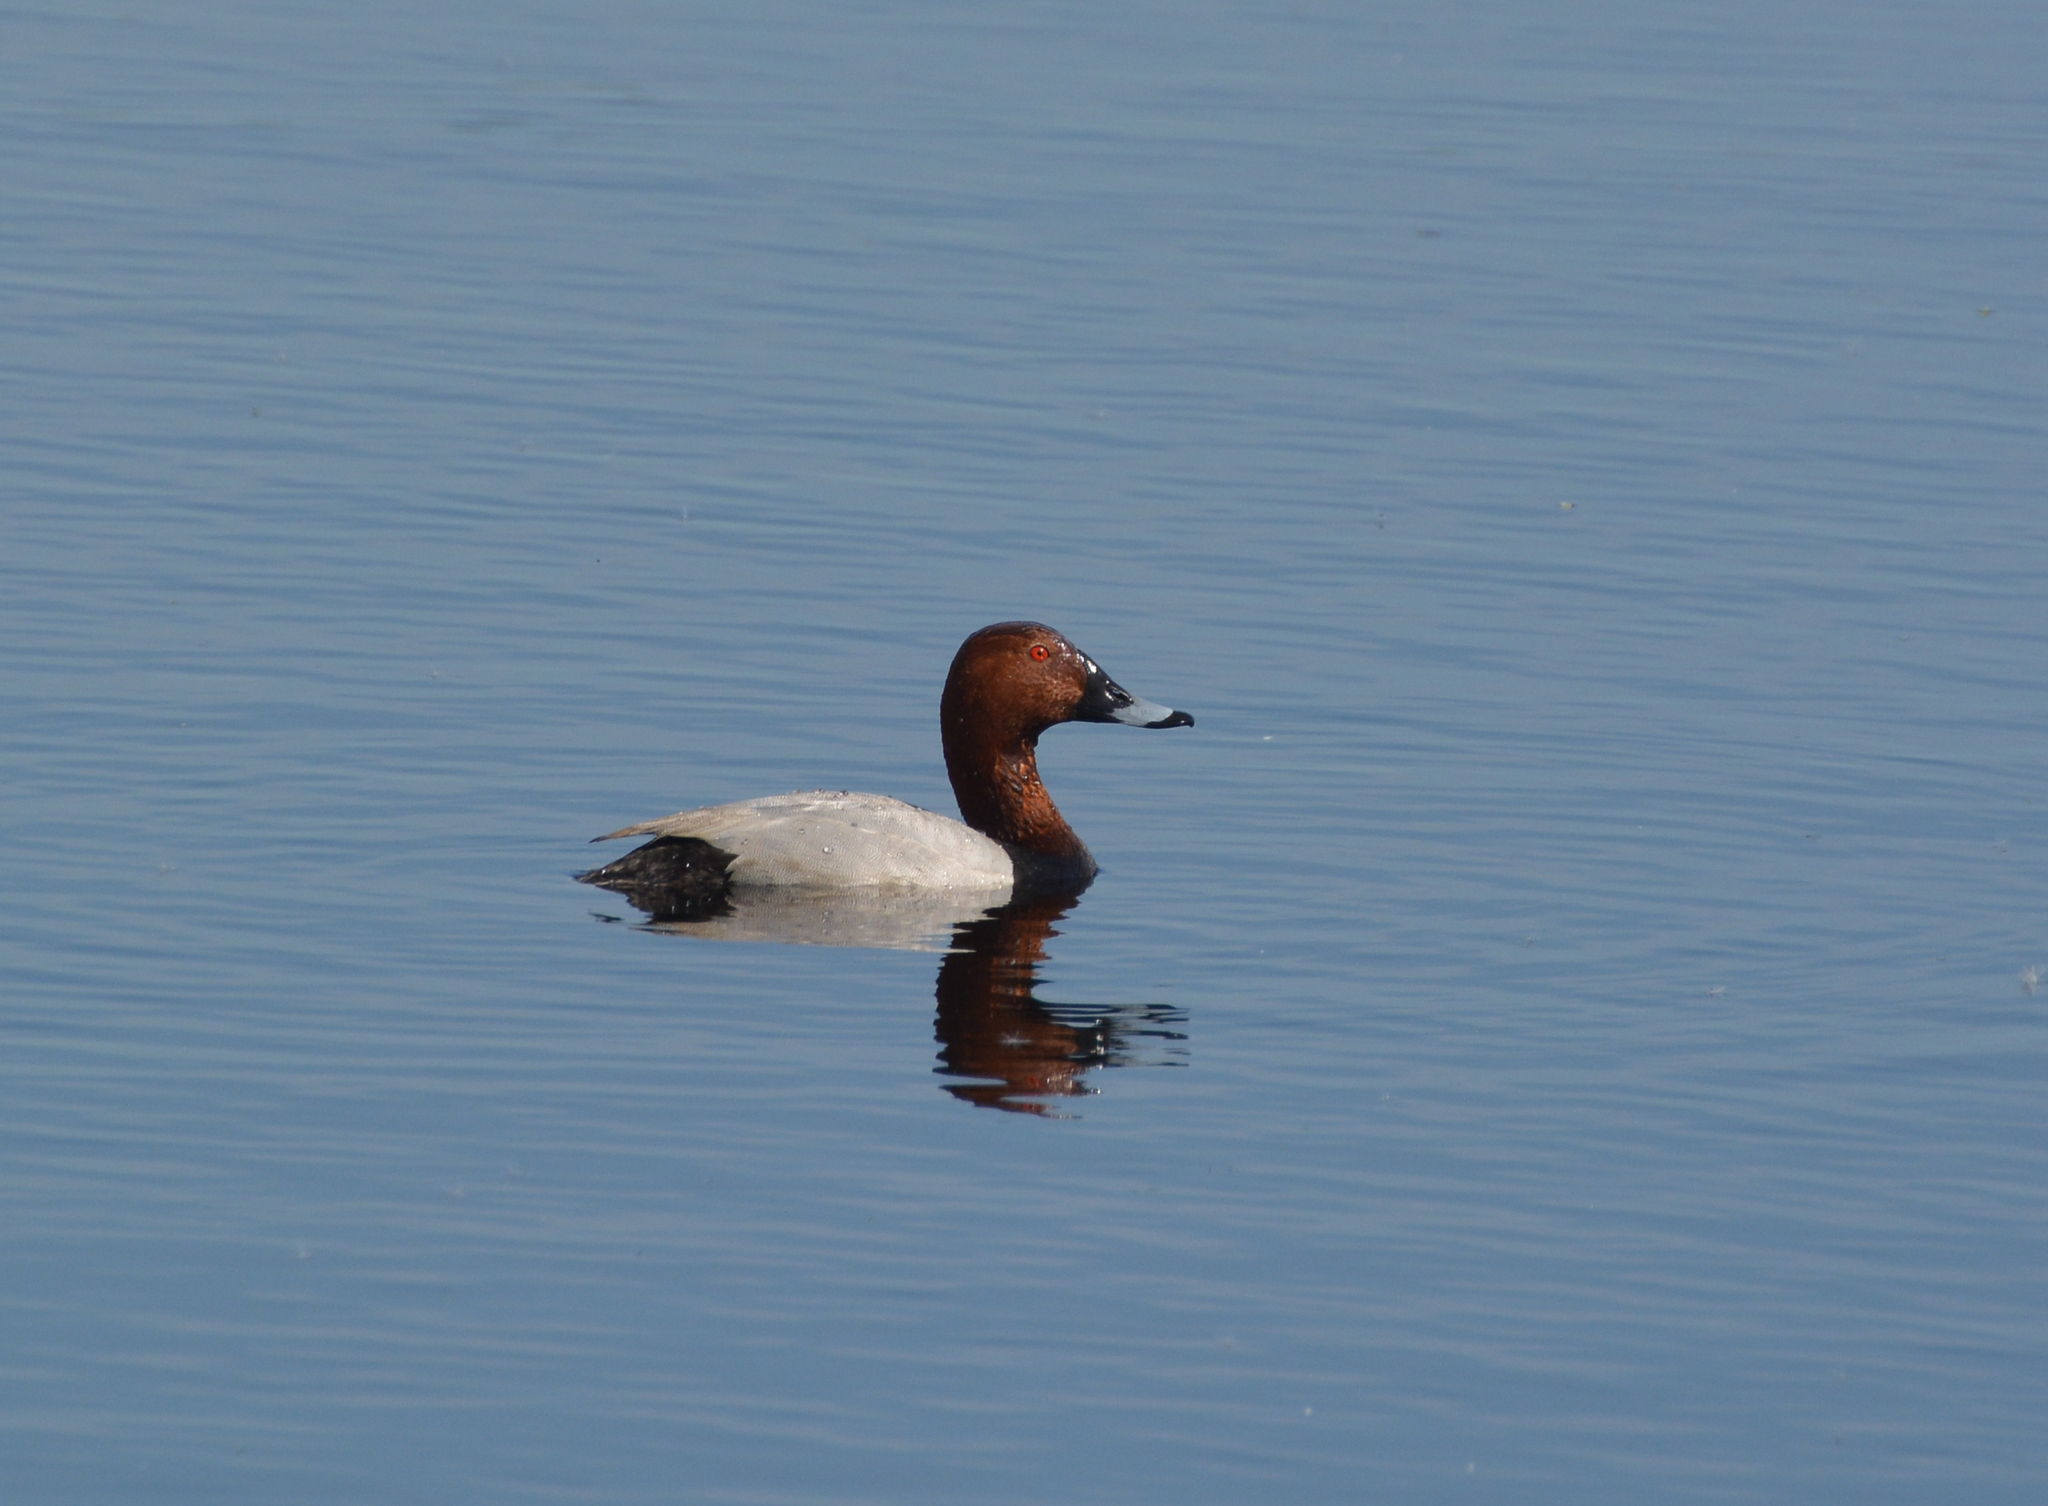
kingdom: Animalia
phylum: Chordata
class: Aves
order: Anseriformes
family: Anatidae
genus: Aythya
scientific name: Aythya ferina
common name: Common pochard
